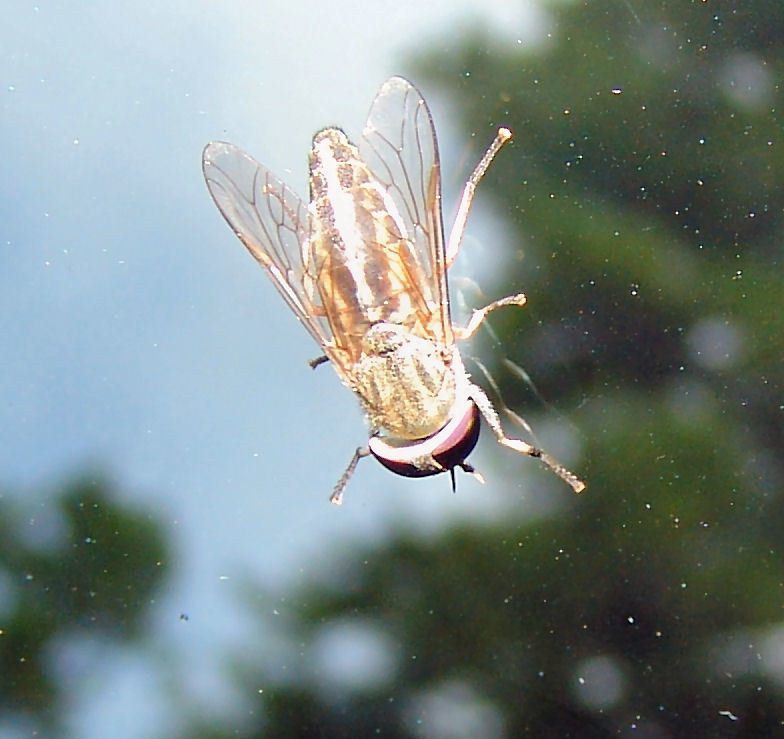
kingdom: Animalia
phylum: Arthropoda
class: Insecta
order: Diptera
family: Tabanidae
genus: Tabanus
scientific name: Tabanus lineola
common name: Striped horse fly
